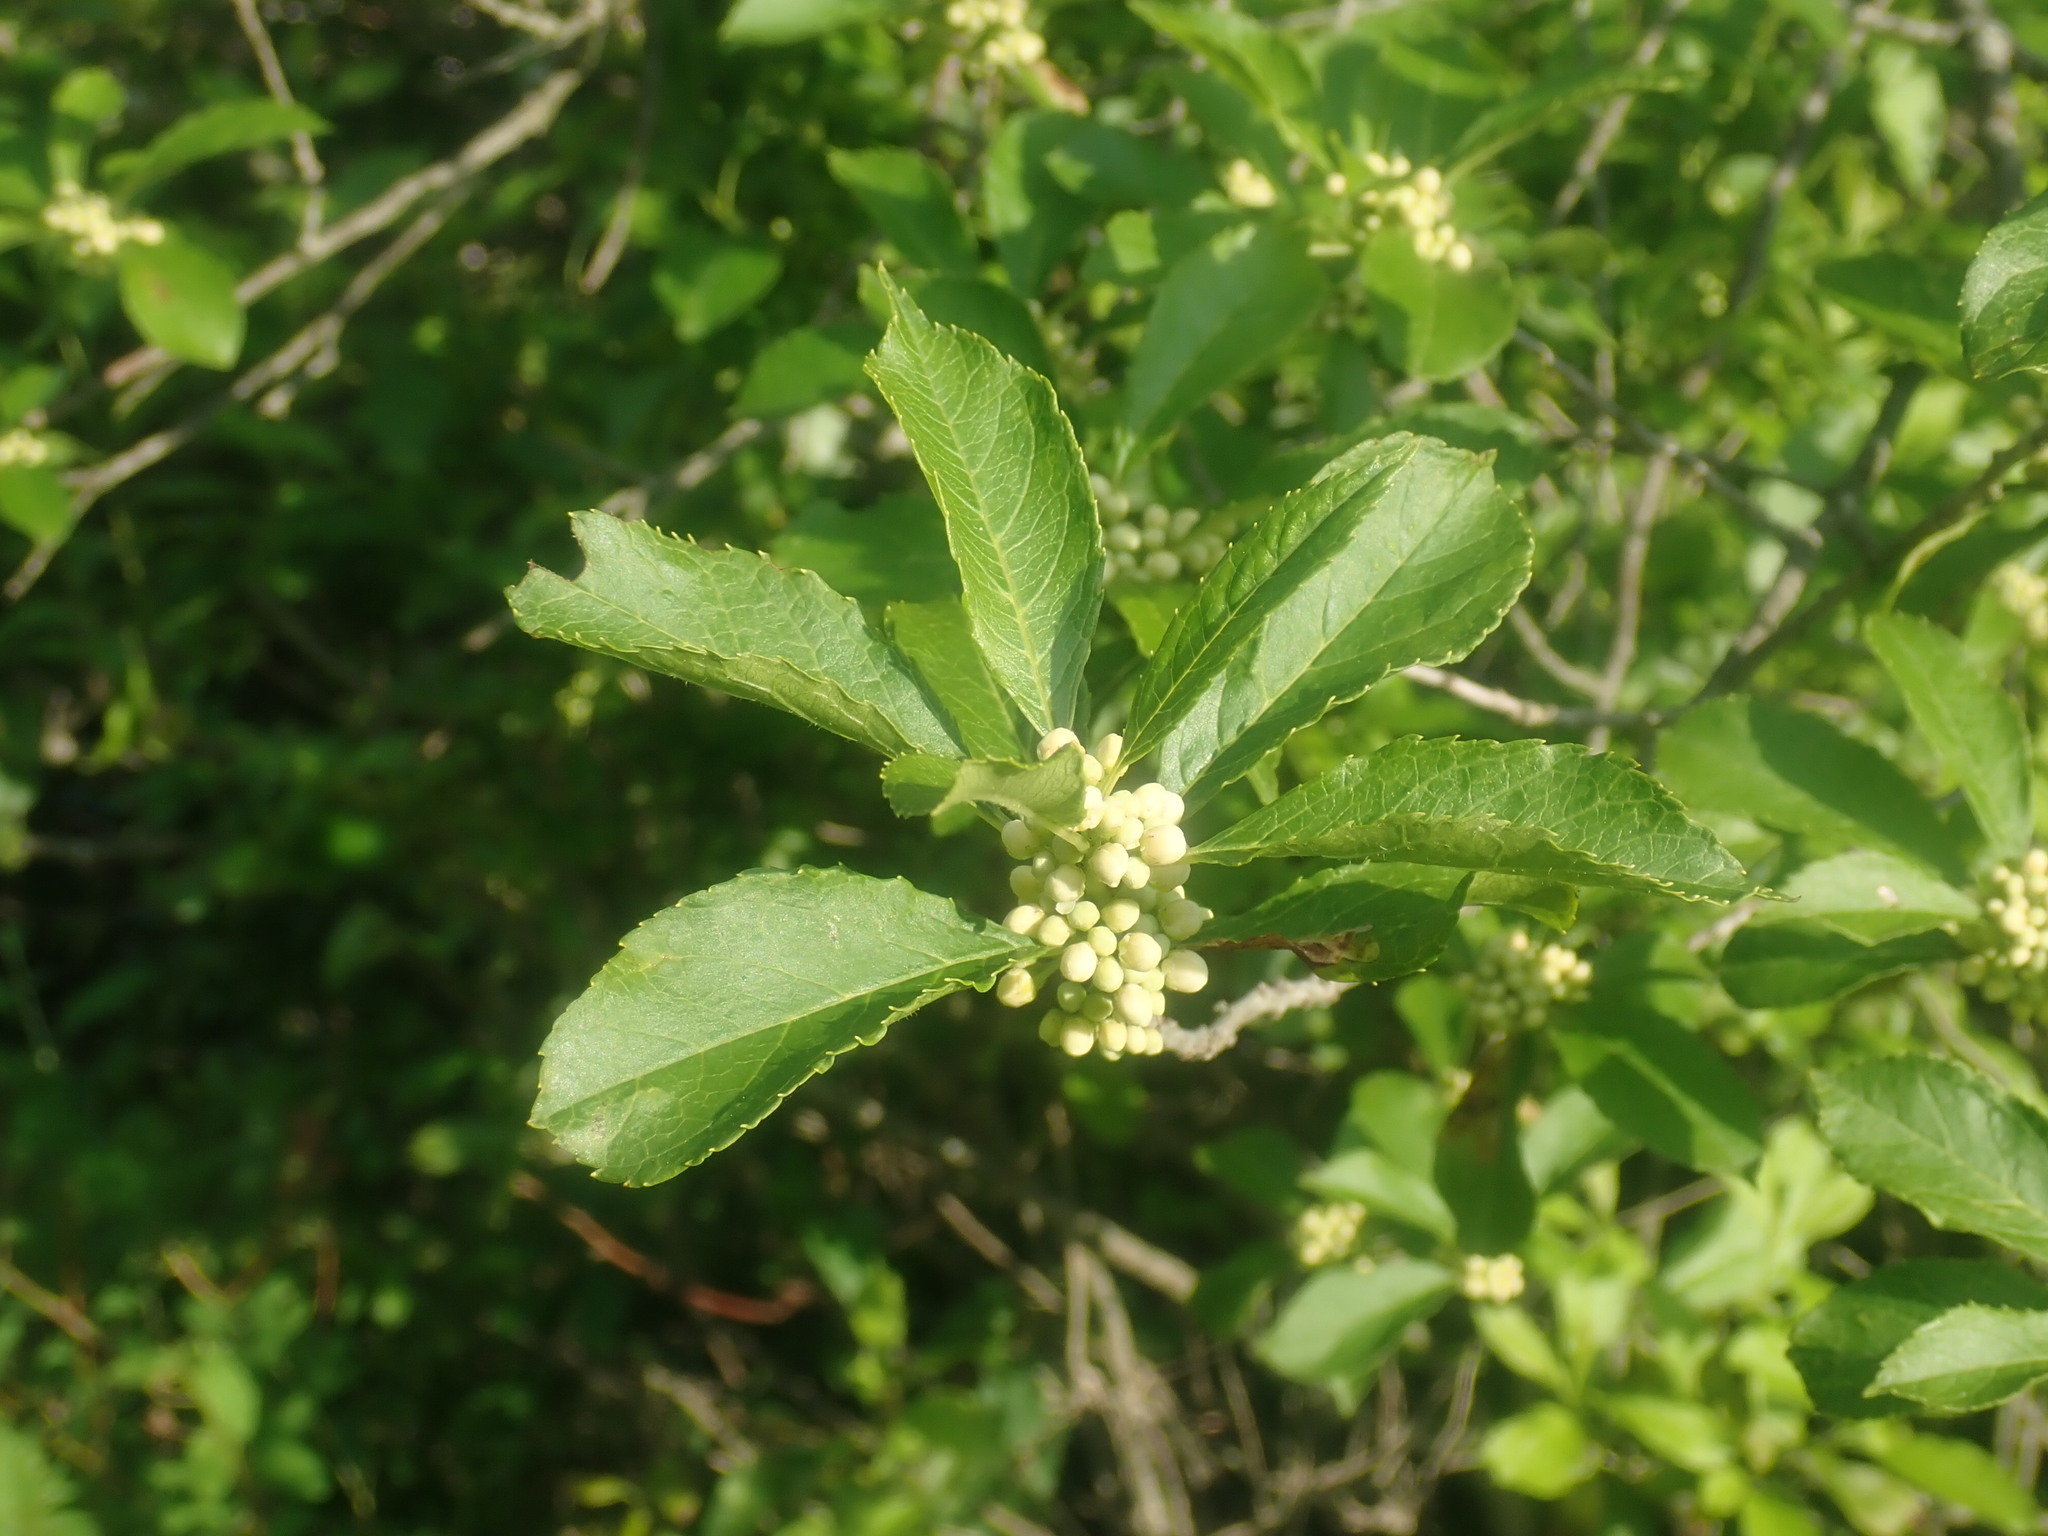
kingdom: Plantae
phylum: Tracheophyta
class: Magnoliopsida
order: Aquifoliales
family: Aquifoliaceae
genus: Ilex
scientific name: Ilex verticillata
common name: Virginia winterberry
